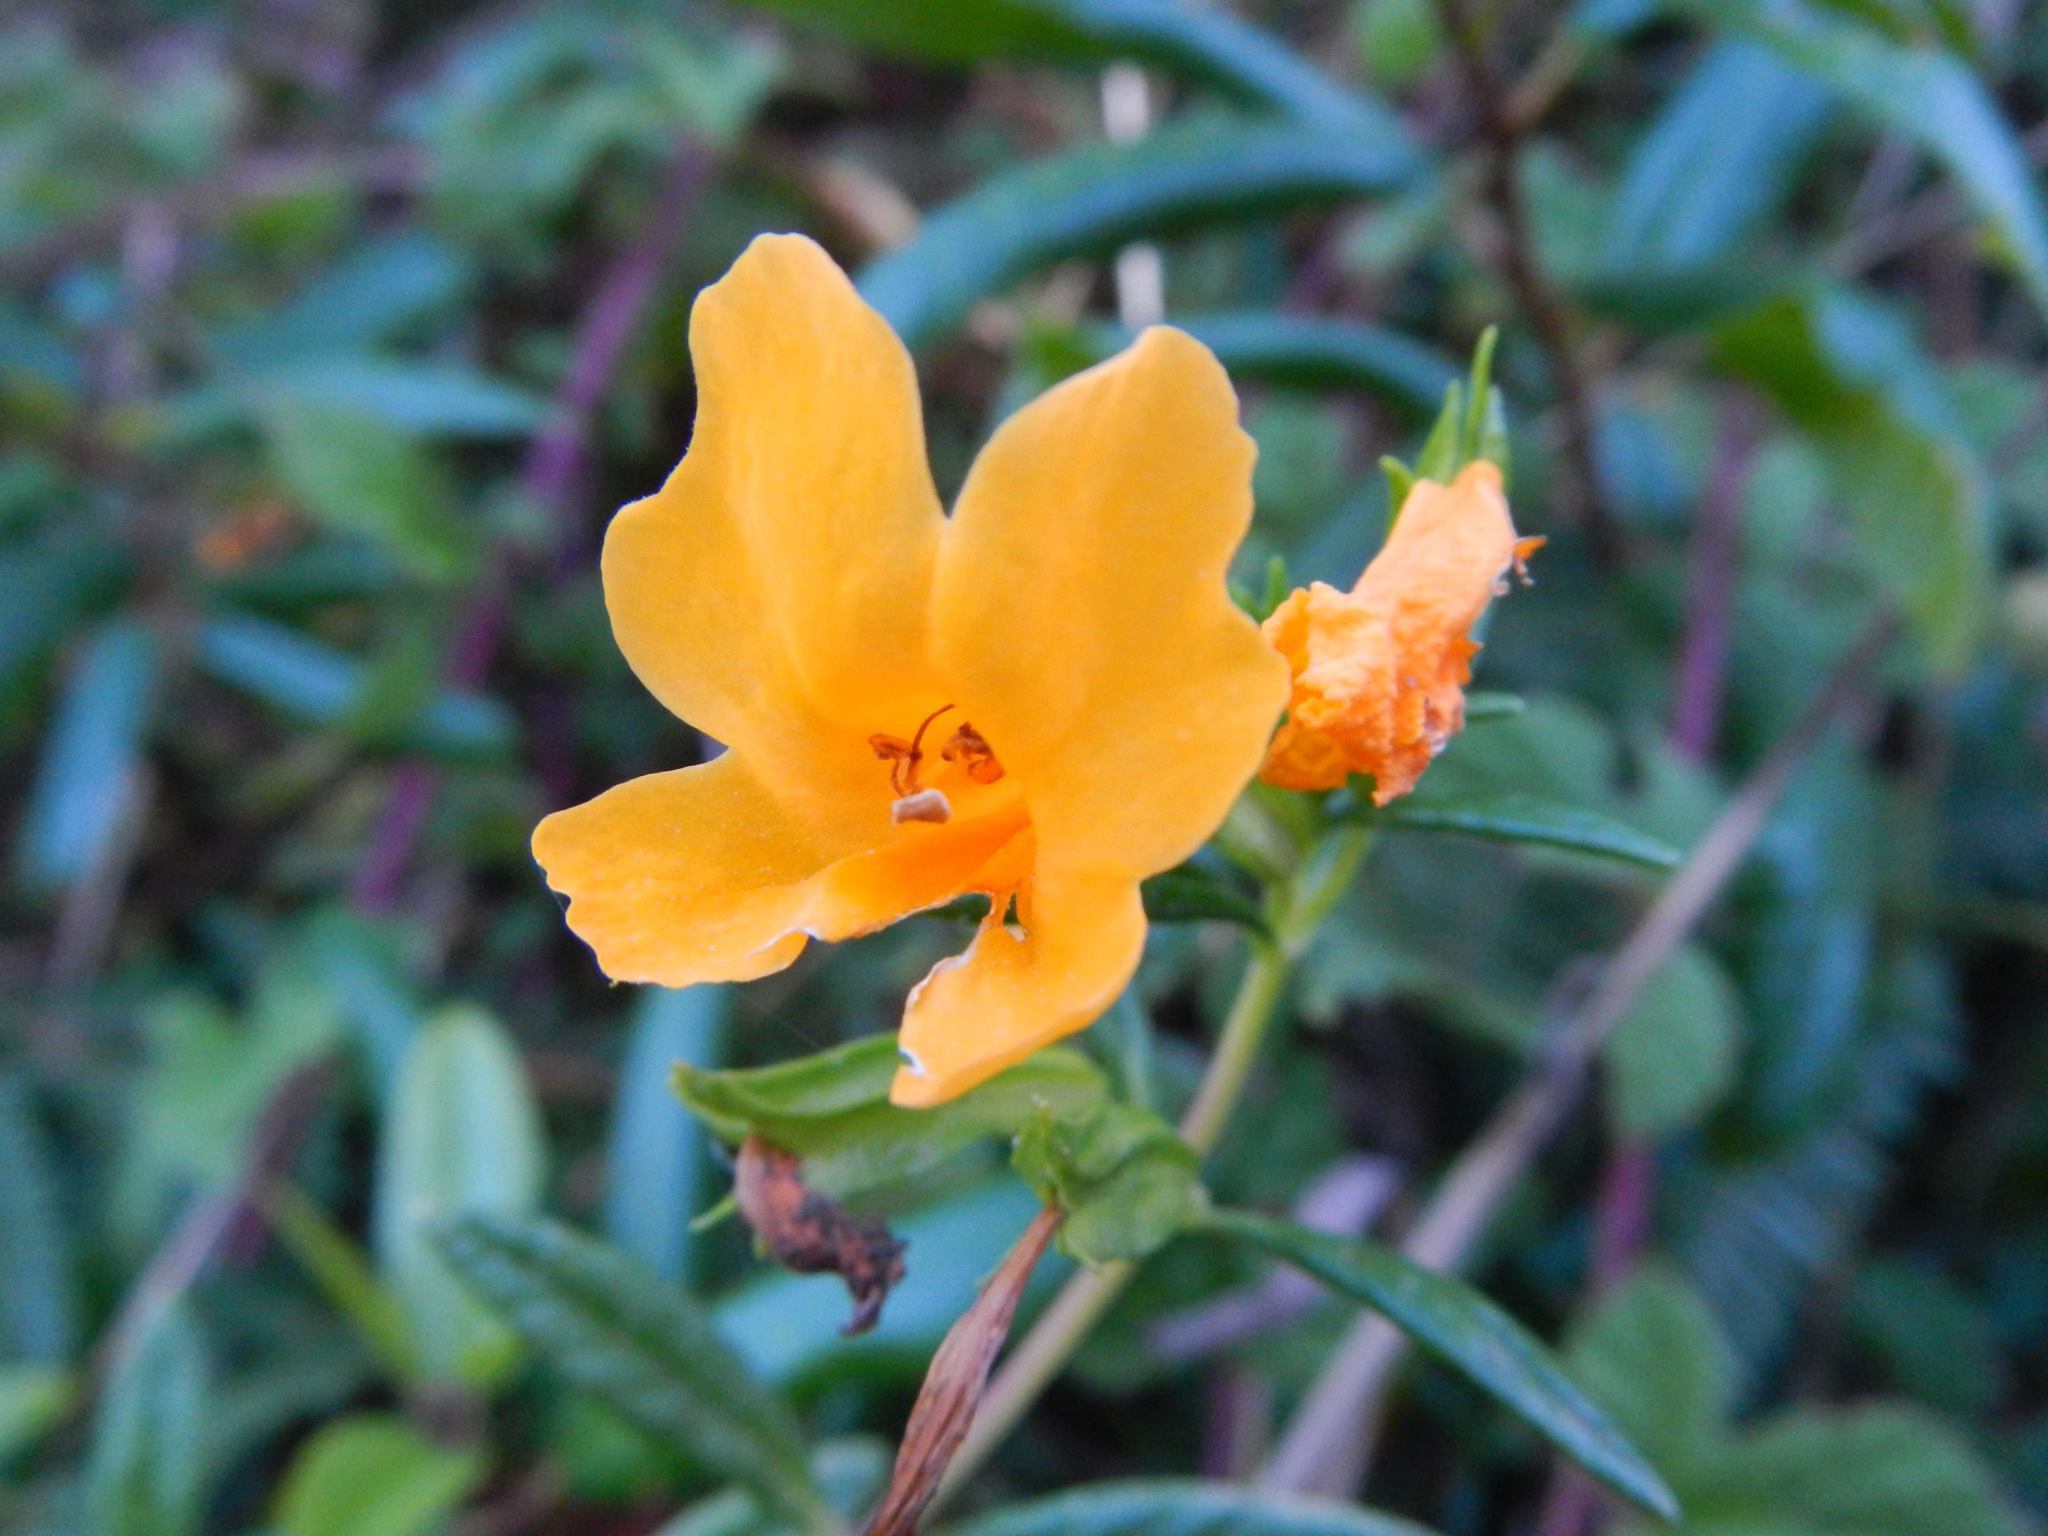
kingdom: Plantae
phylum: Tracheophyta
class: Magnoliopsida
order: Lamiales
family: Phrymaceae
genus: Diplacus
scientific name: Diplacus aurantiacus
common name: Bush monkey-flower
